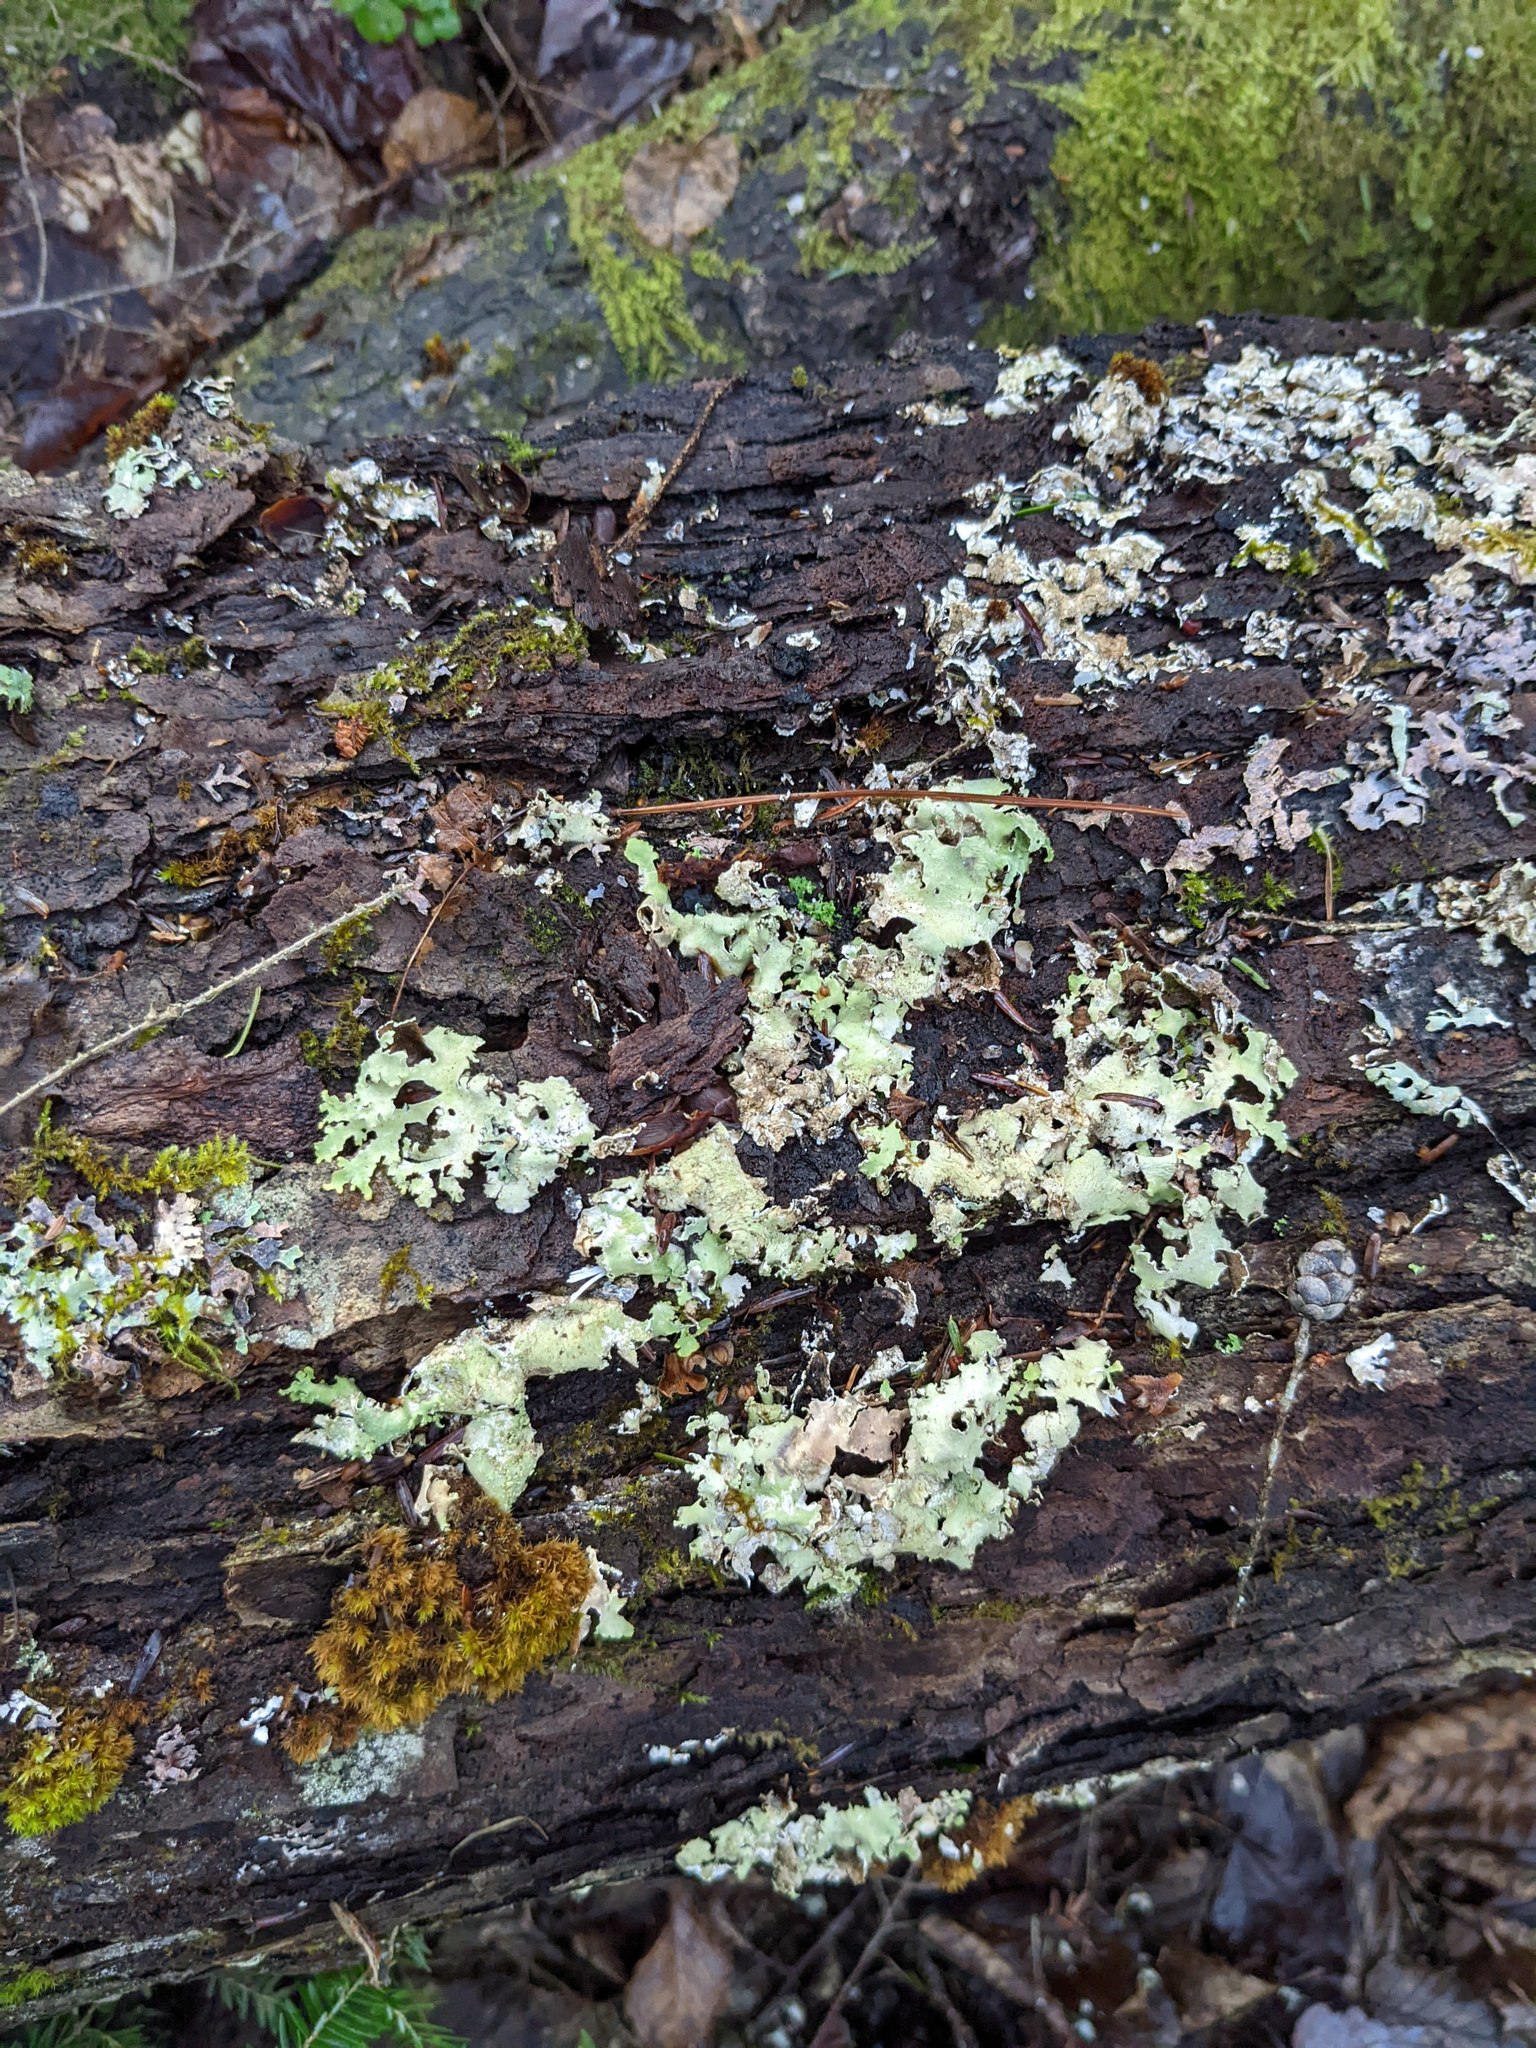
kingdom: Plantae
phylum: Bryophyta
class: Bryopsida
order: Orthotrichales
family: Orthotrichaceae
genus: Ulota
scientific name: Ulota crispa
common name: Crisped pincushion moss
